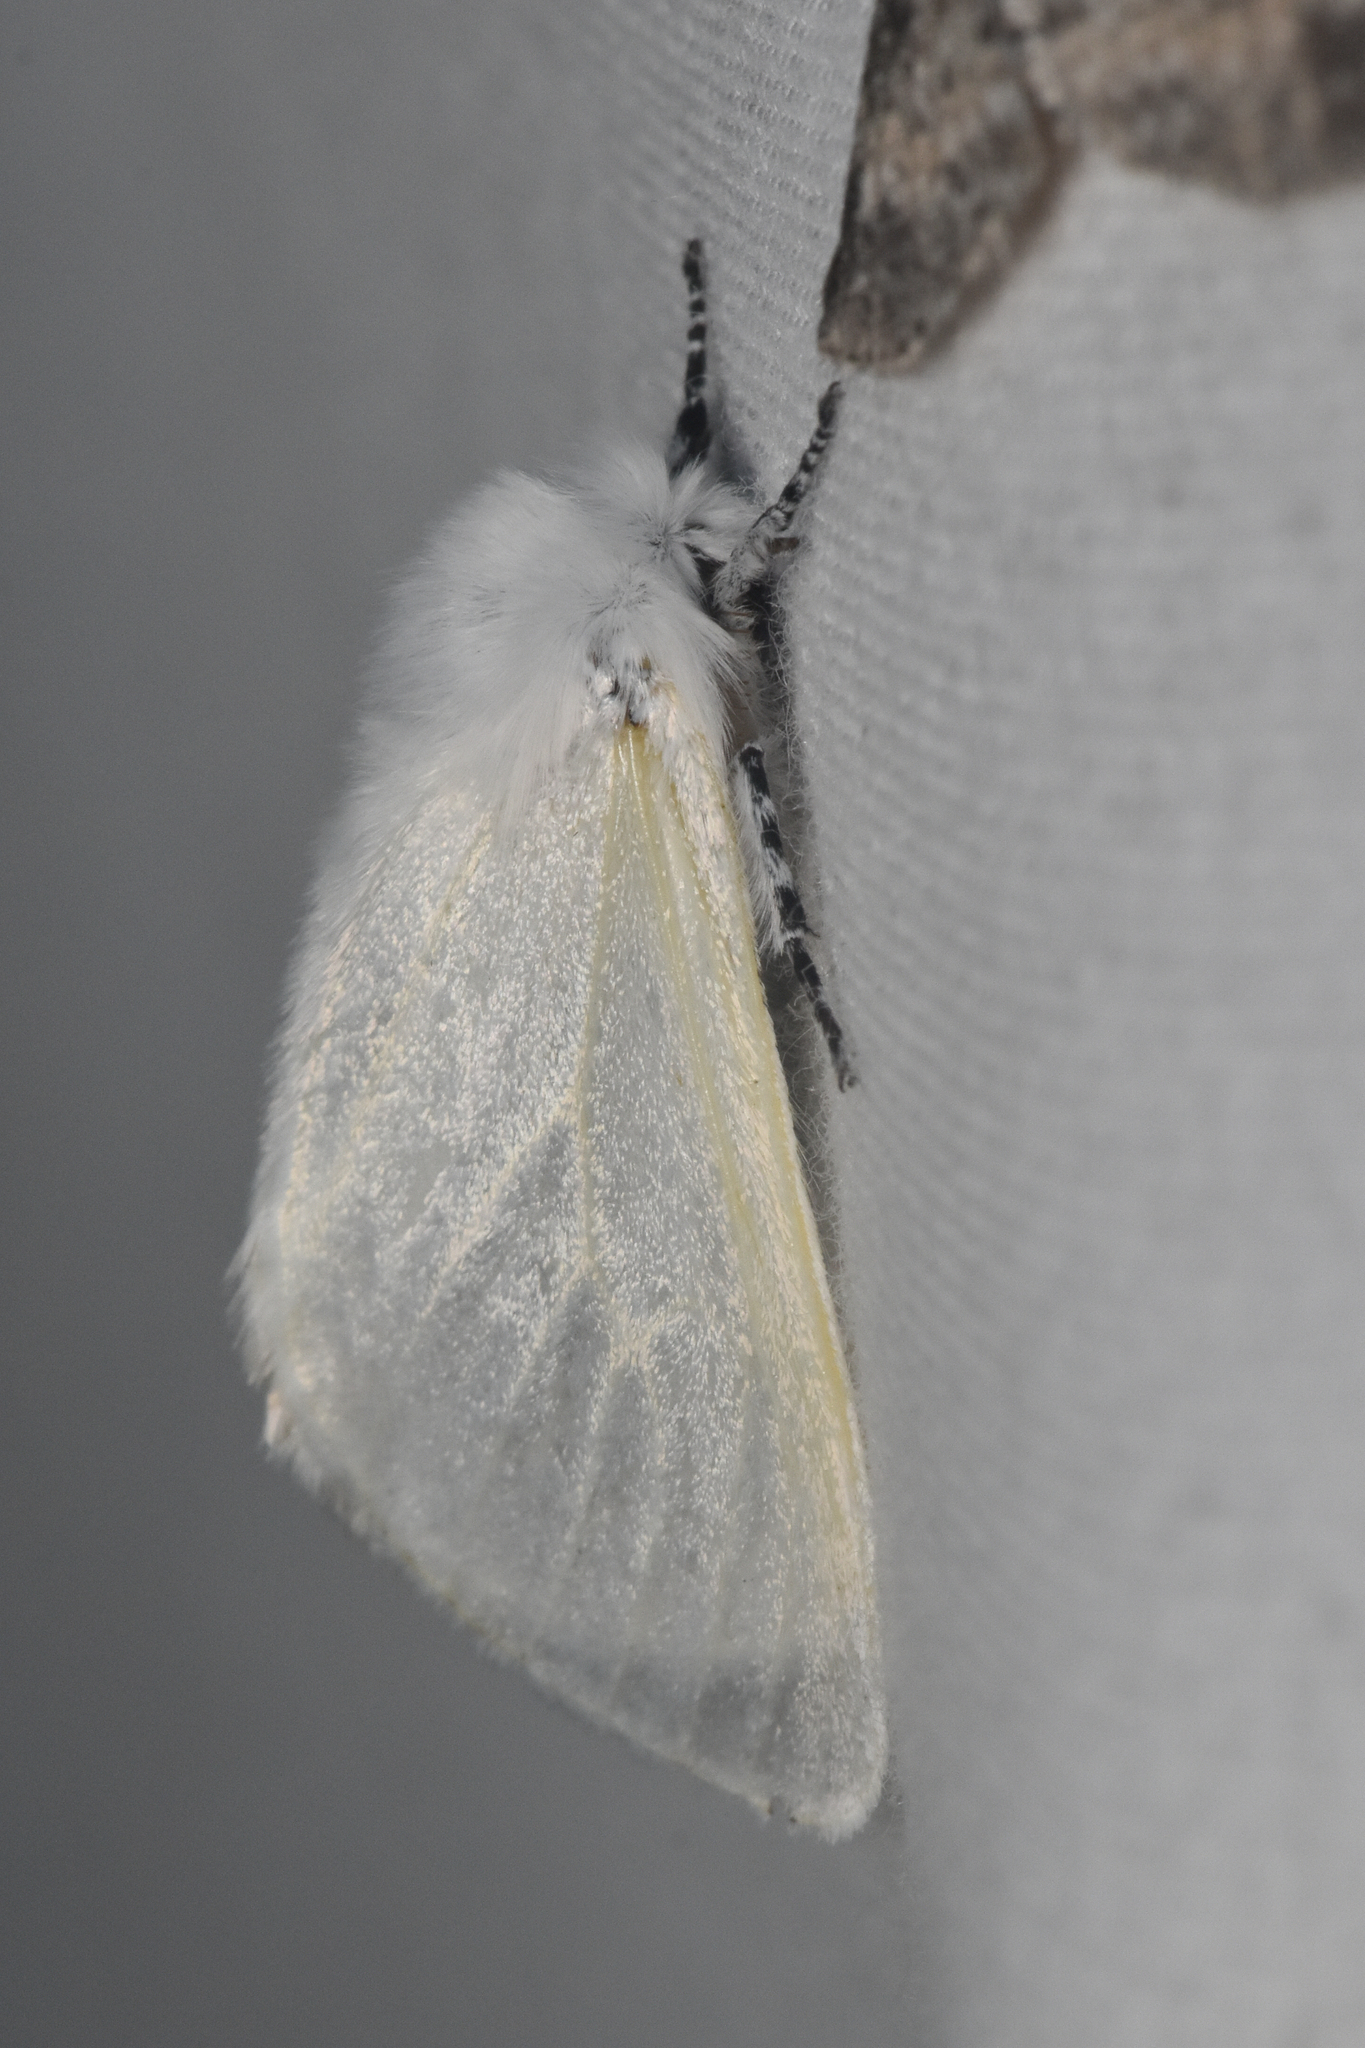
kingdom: Animalia
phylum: Arthropoda
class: Insecta
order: Lepidoptera
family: Erebidae
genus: Leucoma
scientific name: Leucoma salicis
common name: White satin moth
